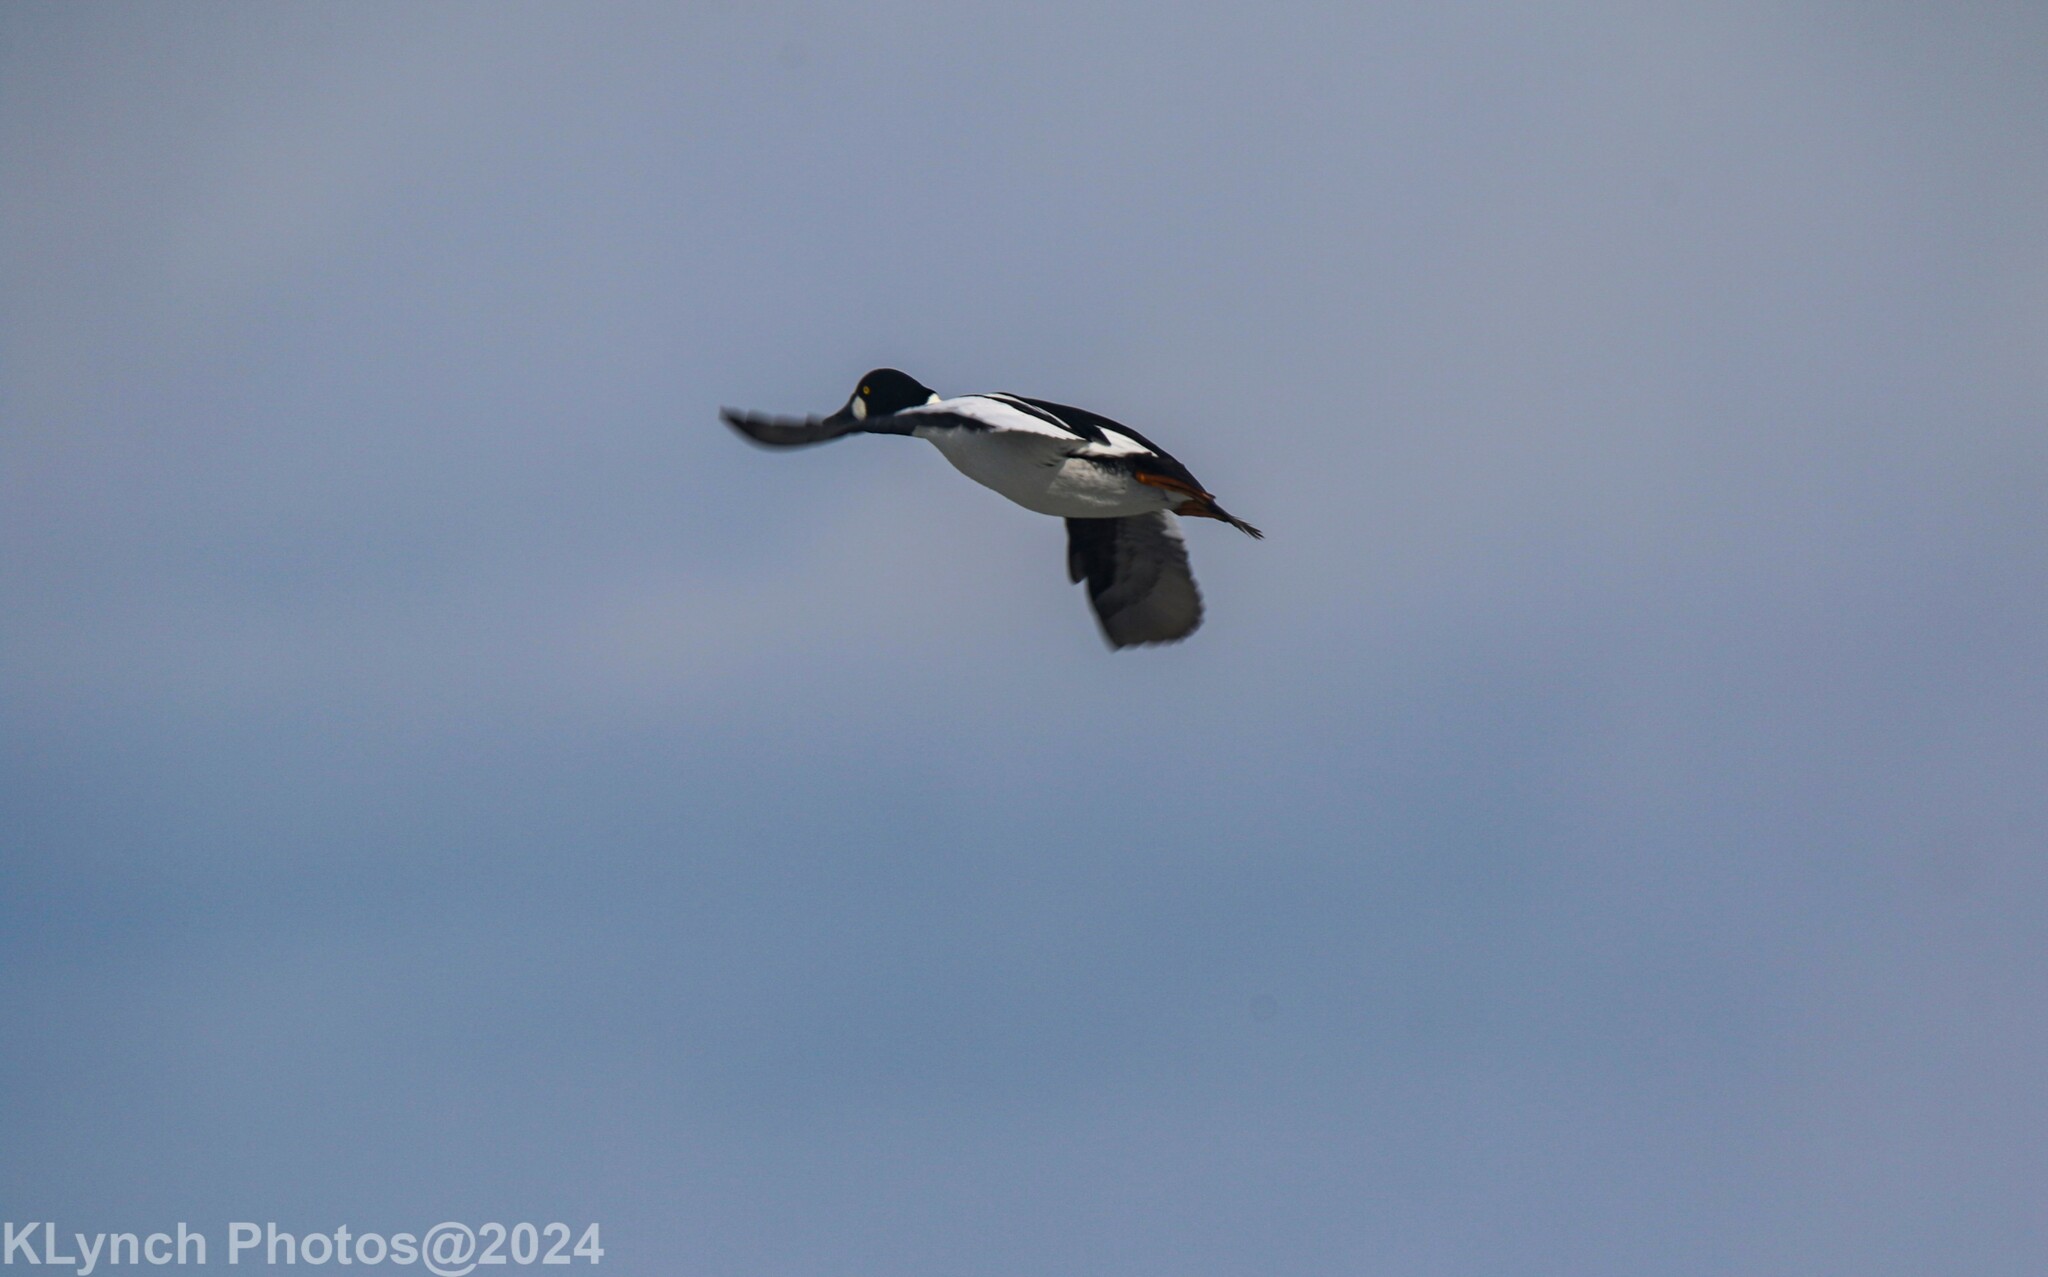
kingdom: Animalia
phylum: Chordata
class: Aves
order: Anseriformes
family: Anatidae
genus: Bucephala
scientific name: Bucephala clangula
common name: Common goldeneye
